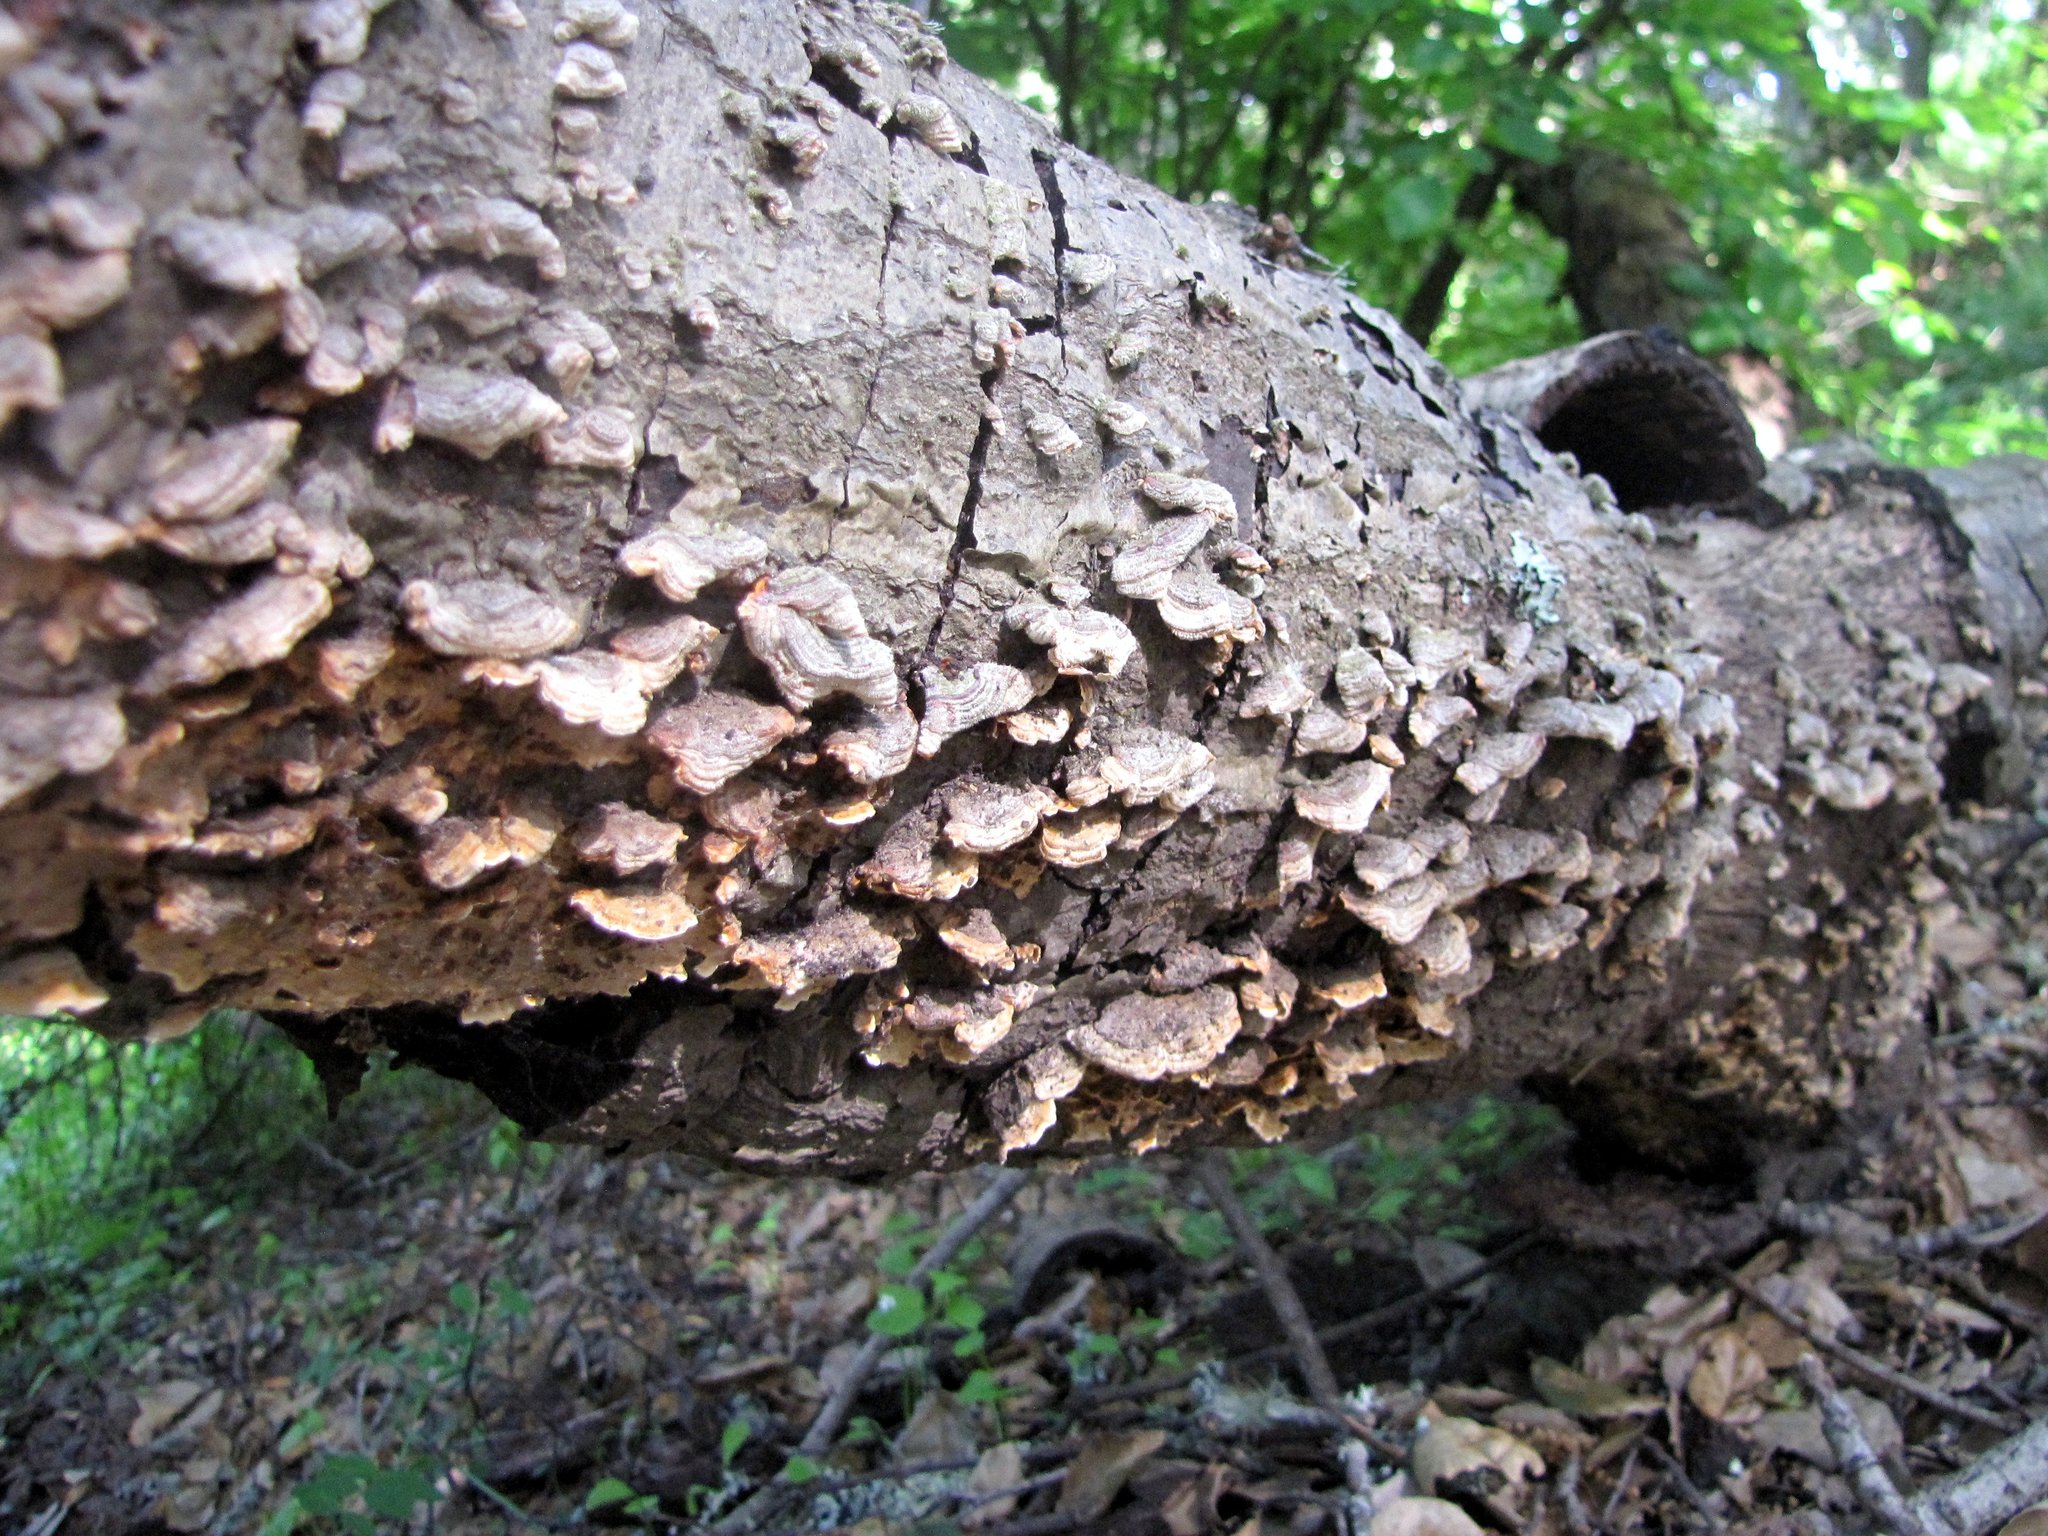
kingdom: Fungi
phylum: Basidiomycota
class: Agaricomycetes
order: Polyporales
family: Polyporaceae
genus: Trametes
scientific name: Trametes versicolor
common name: Turkeytail
